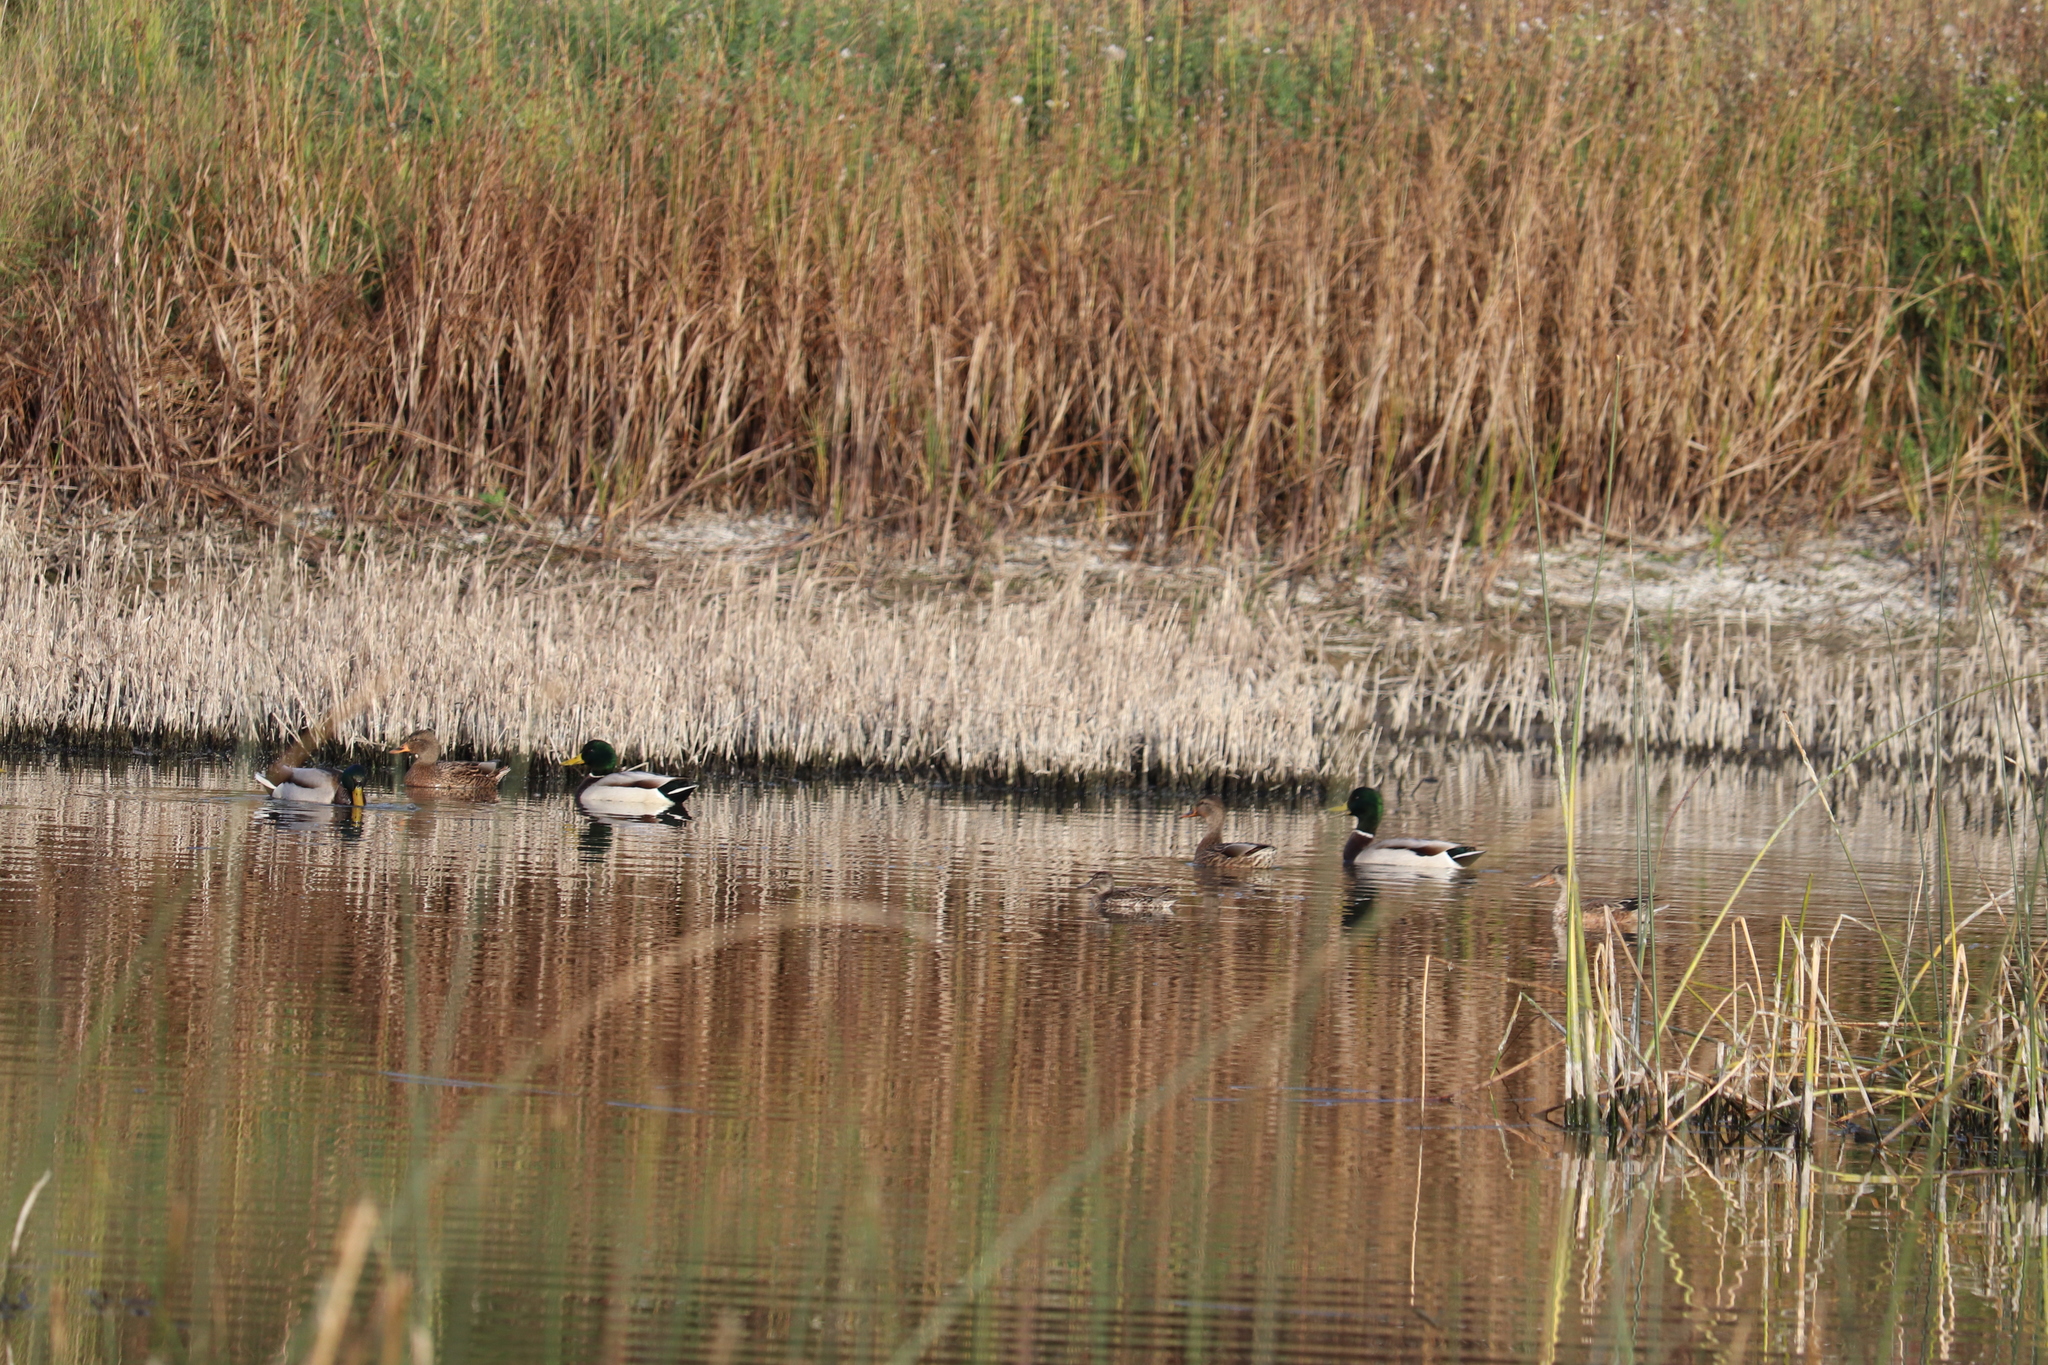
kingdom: Animalia
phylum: Chordata
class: Aves
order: Anseriformes
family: Anatidae
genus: Anas
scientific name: Anas platyrhynchos
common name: Mallard
